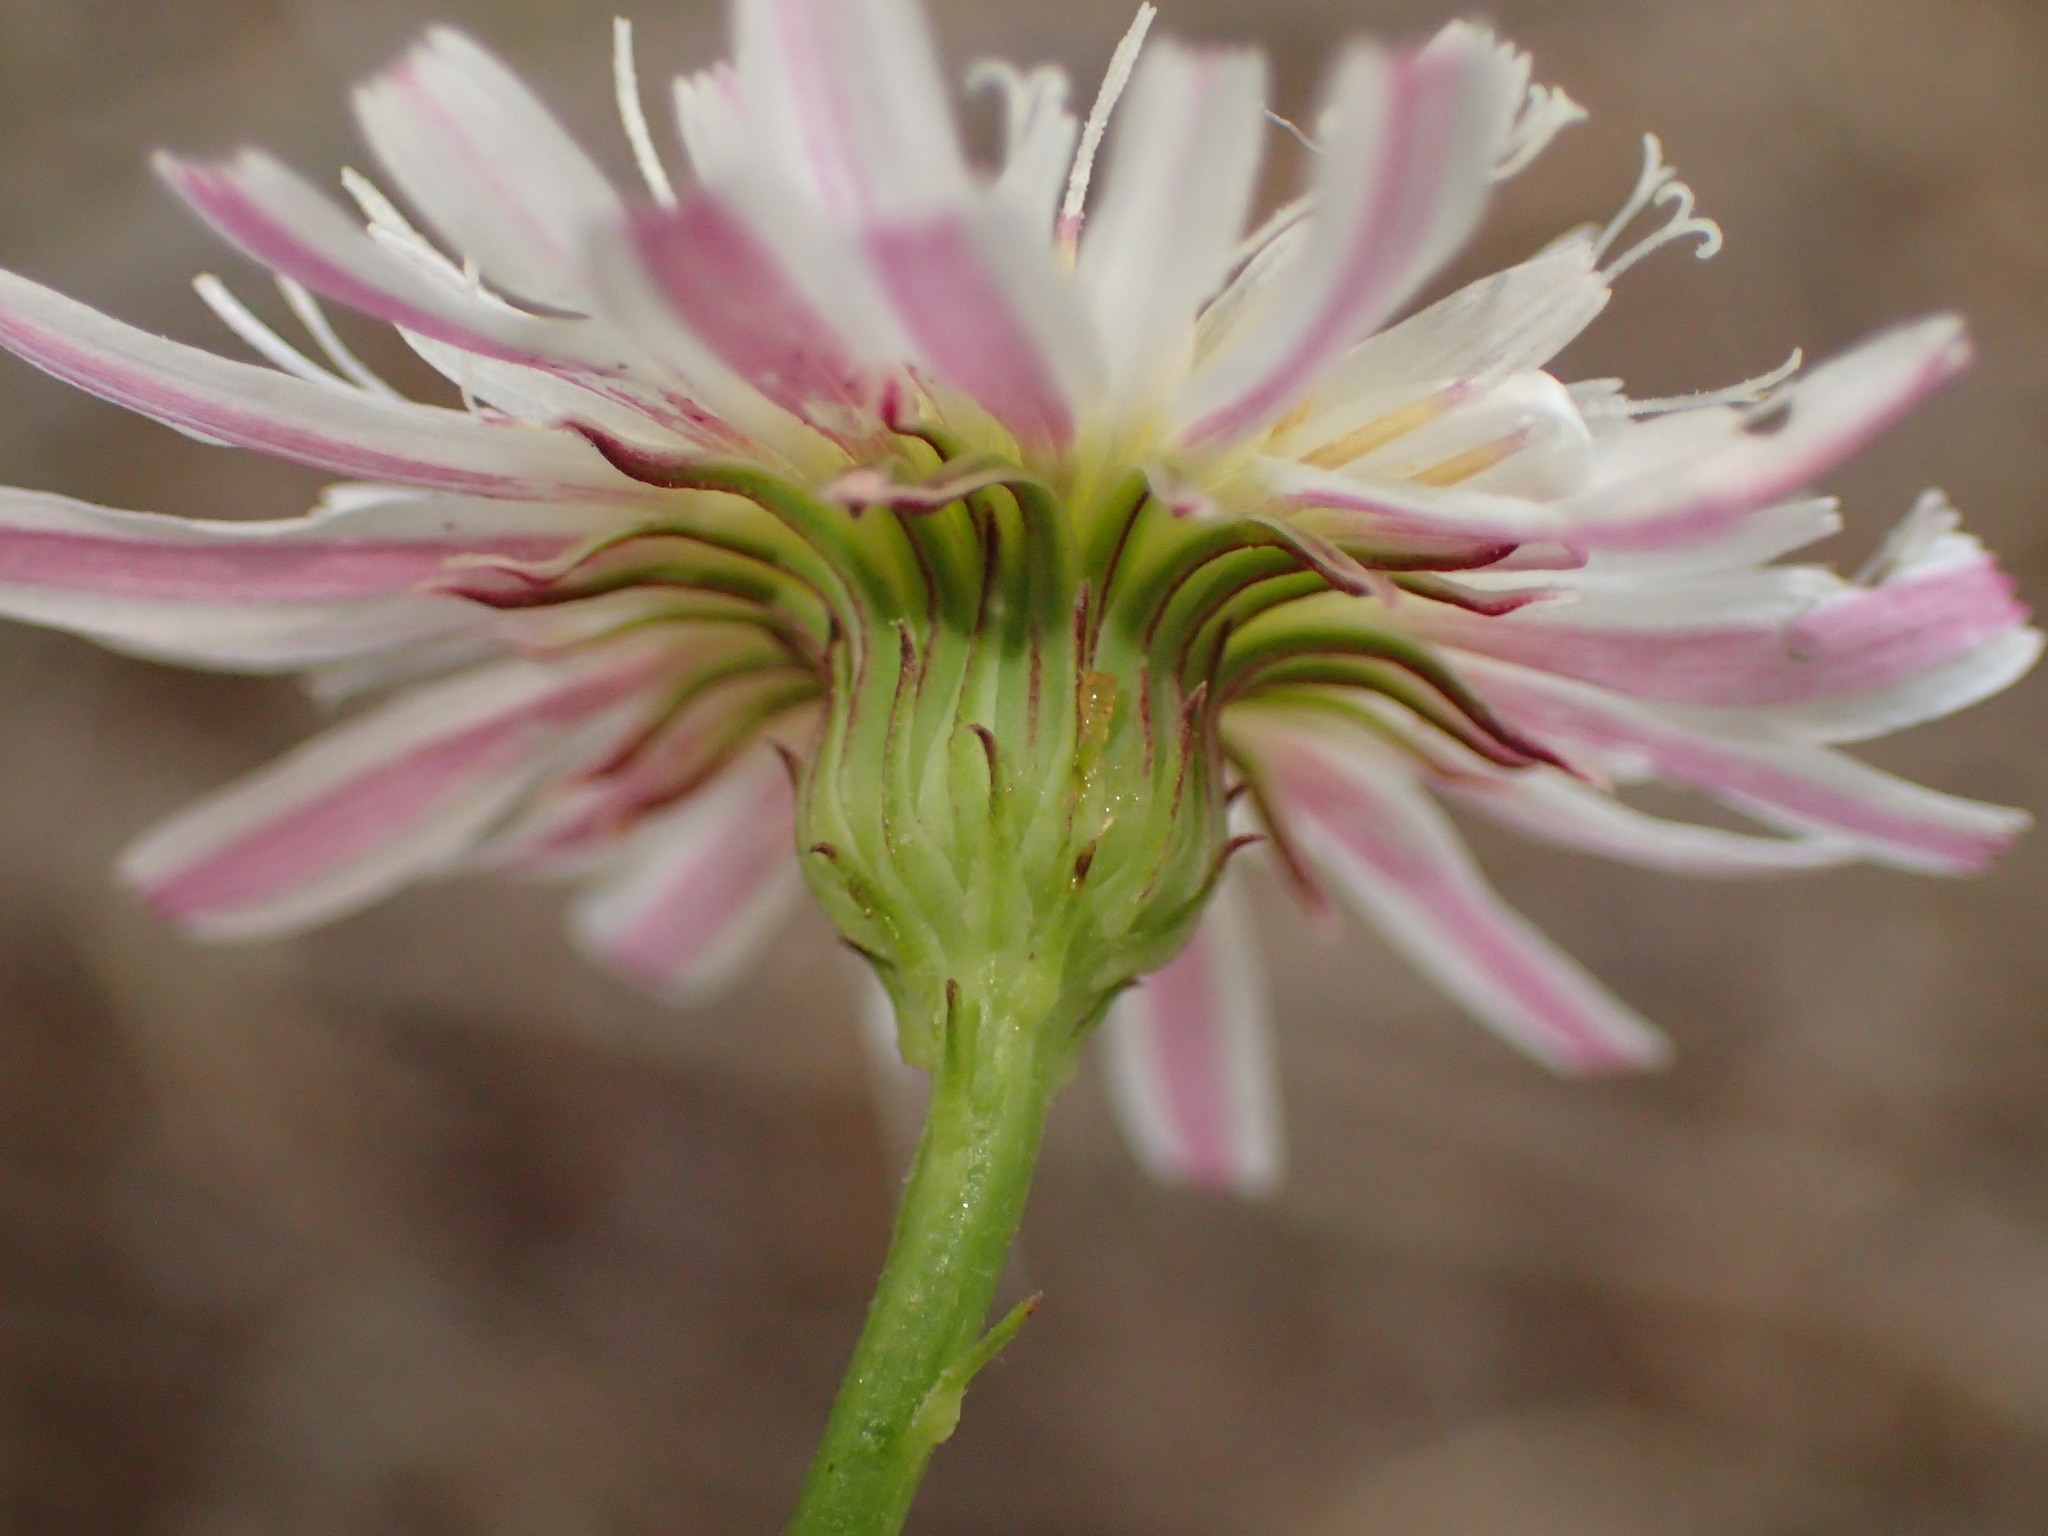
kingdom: Plantae
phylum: Tracheophyta
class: Magnoliopsida
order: Asterales
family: Asteraceae
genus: Malacothrix
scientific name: Malacothrix saxatilis
